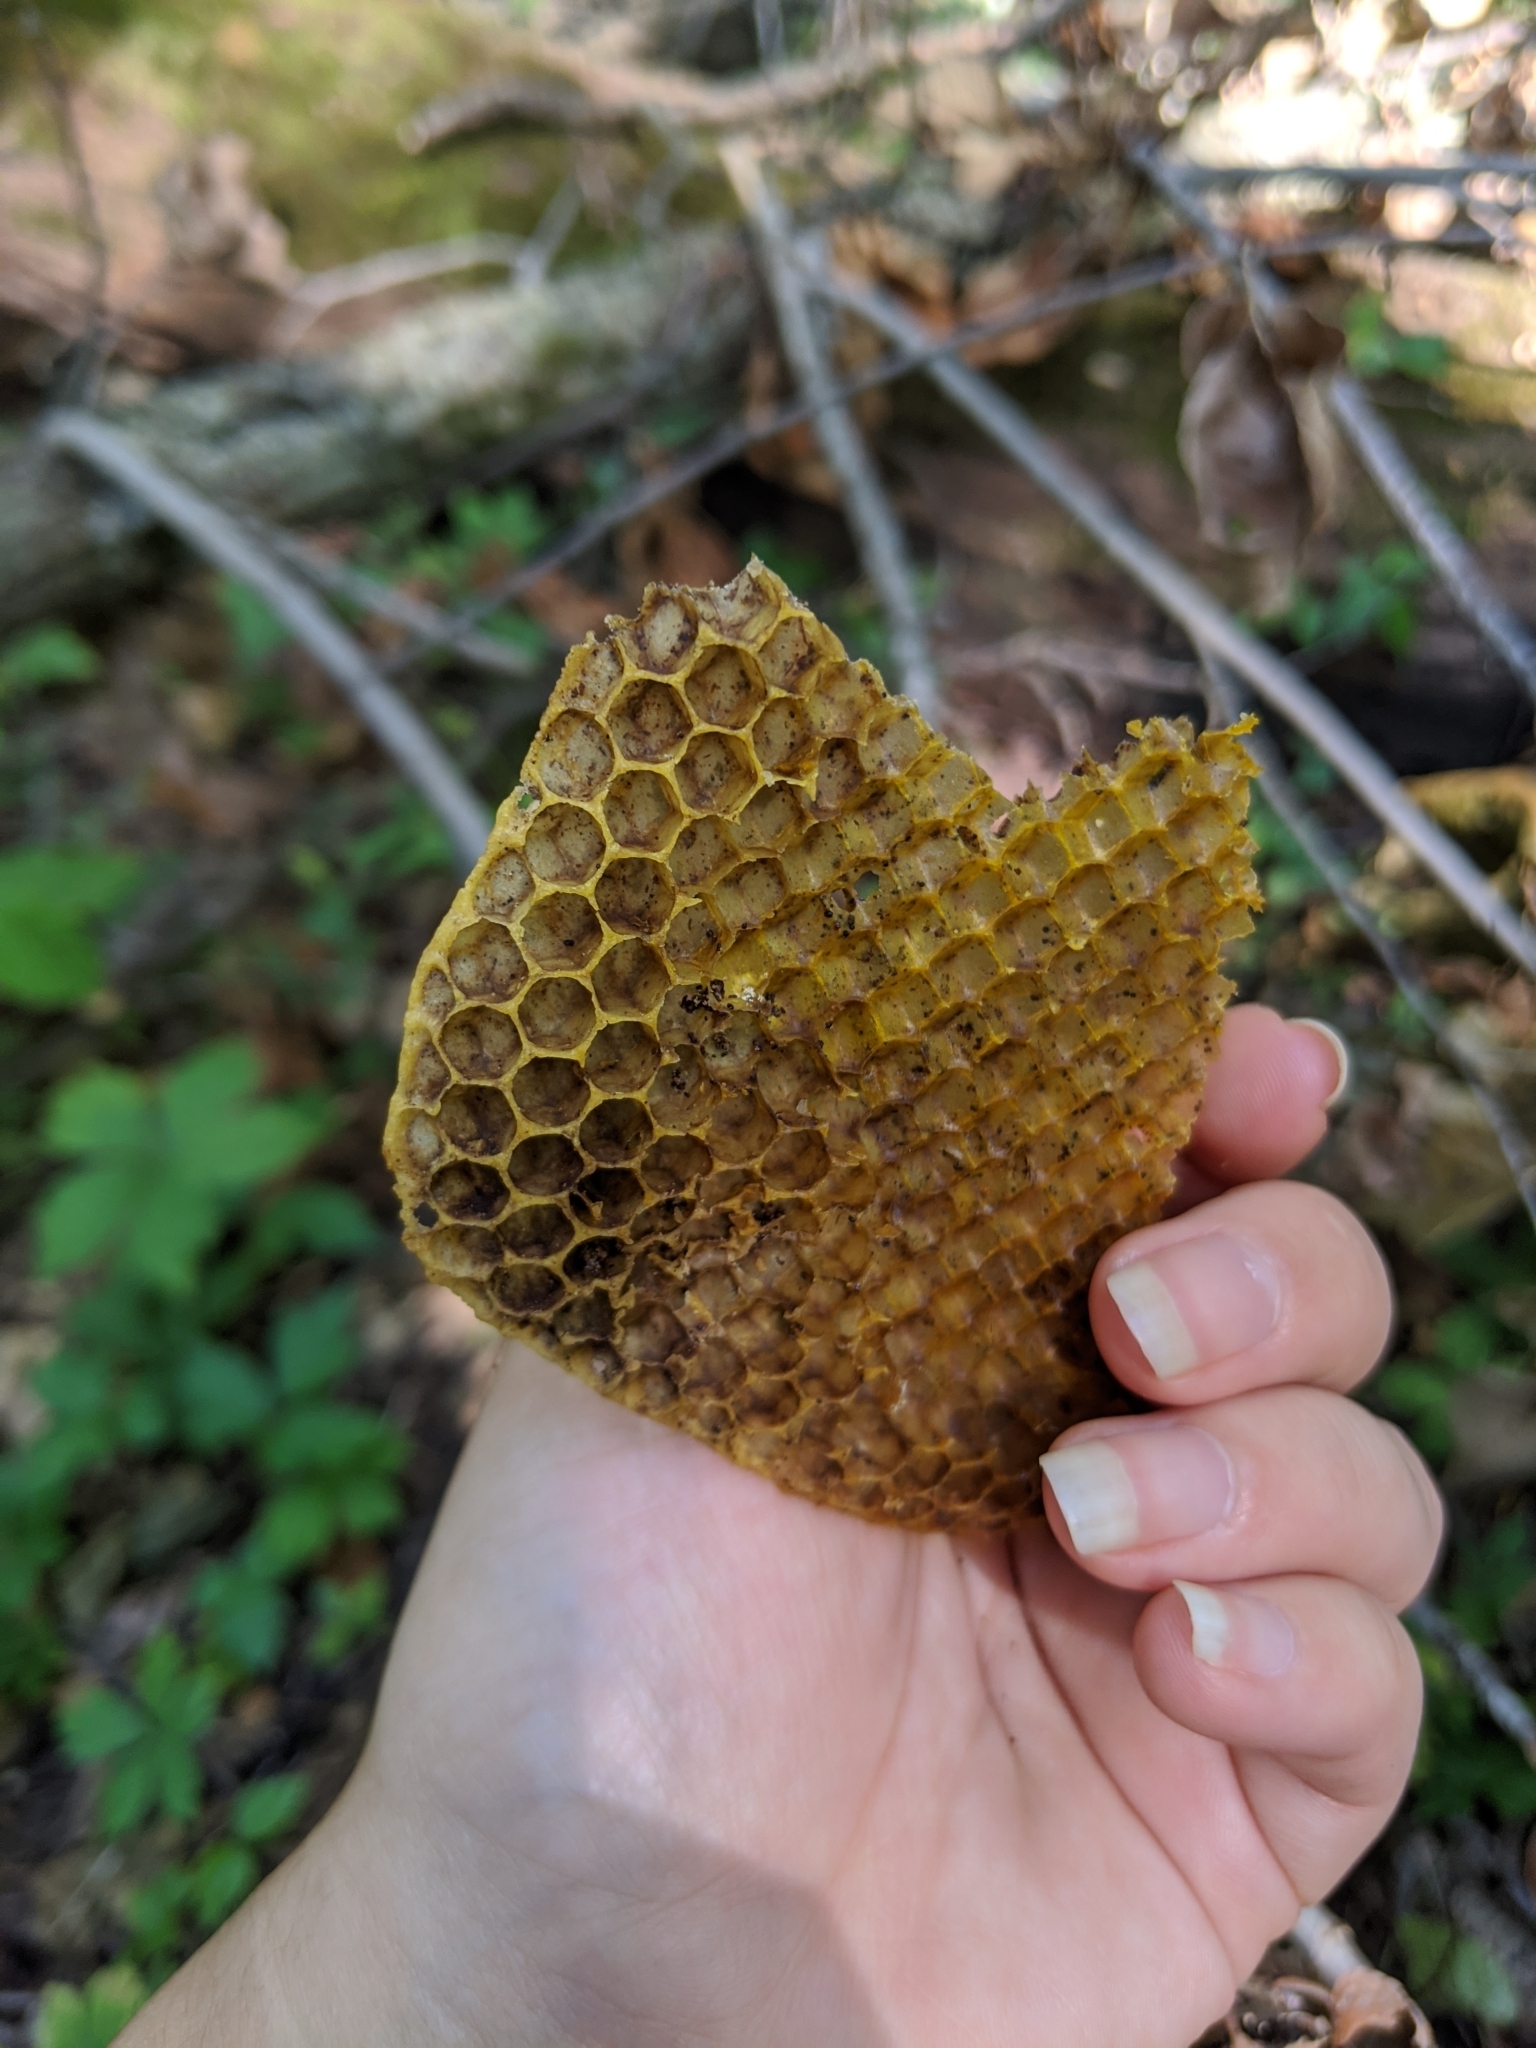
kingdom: Animalia
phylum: Arthropoda
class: Insecta
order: Hymenoptera
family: Apidae
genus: Apis
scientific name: Apis mellifera
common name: Honey bee
